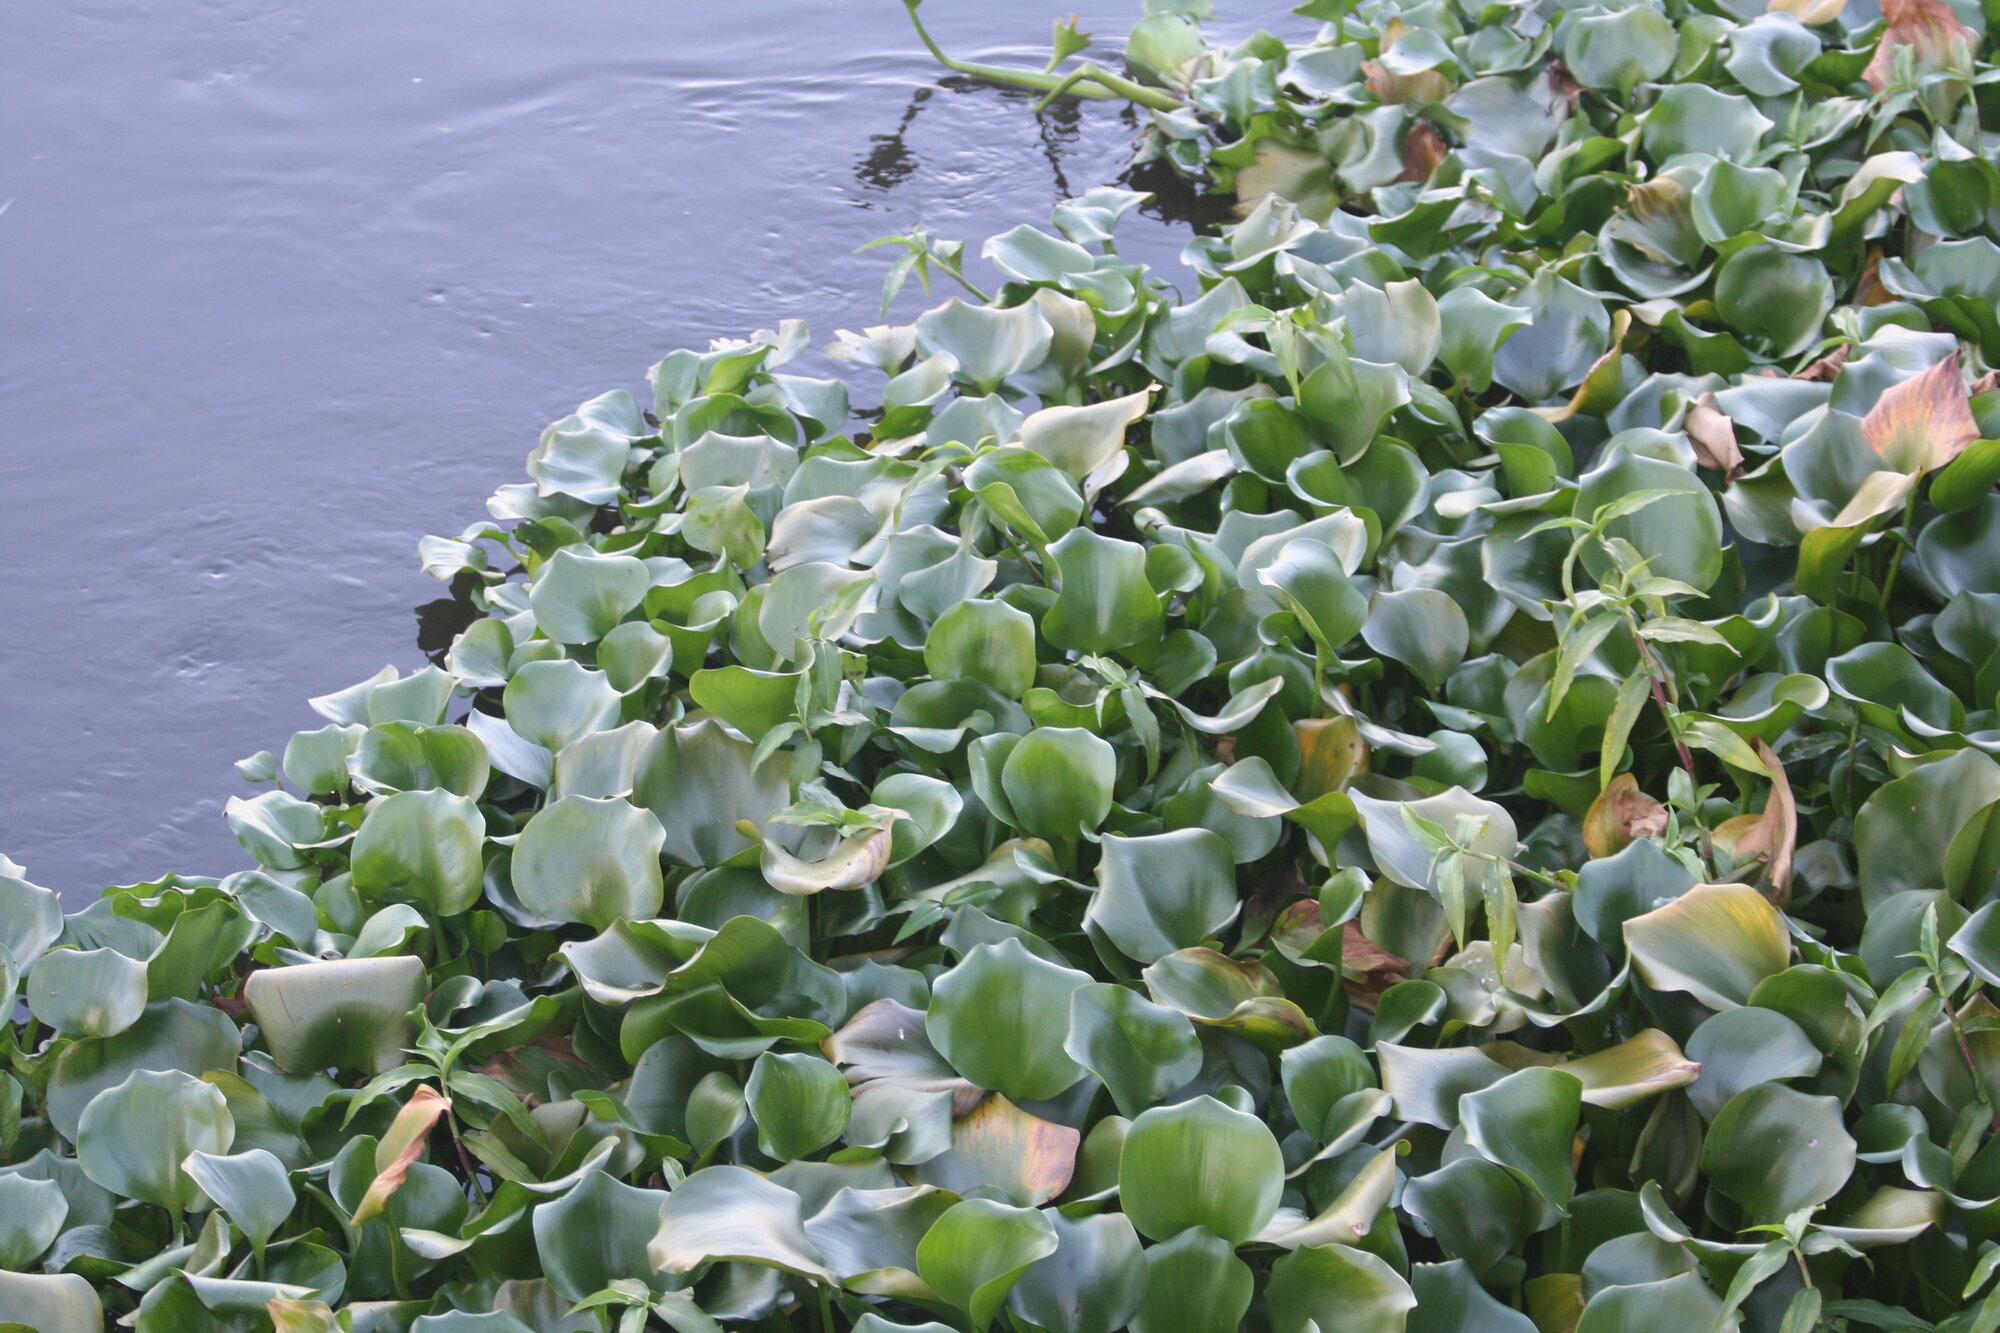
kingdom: Plantae
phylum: Tracheophyta
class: Liliopsida
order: Commelinales
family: Pontederiaceae
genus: Pontederia
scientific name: Pontederia crassipes
